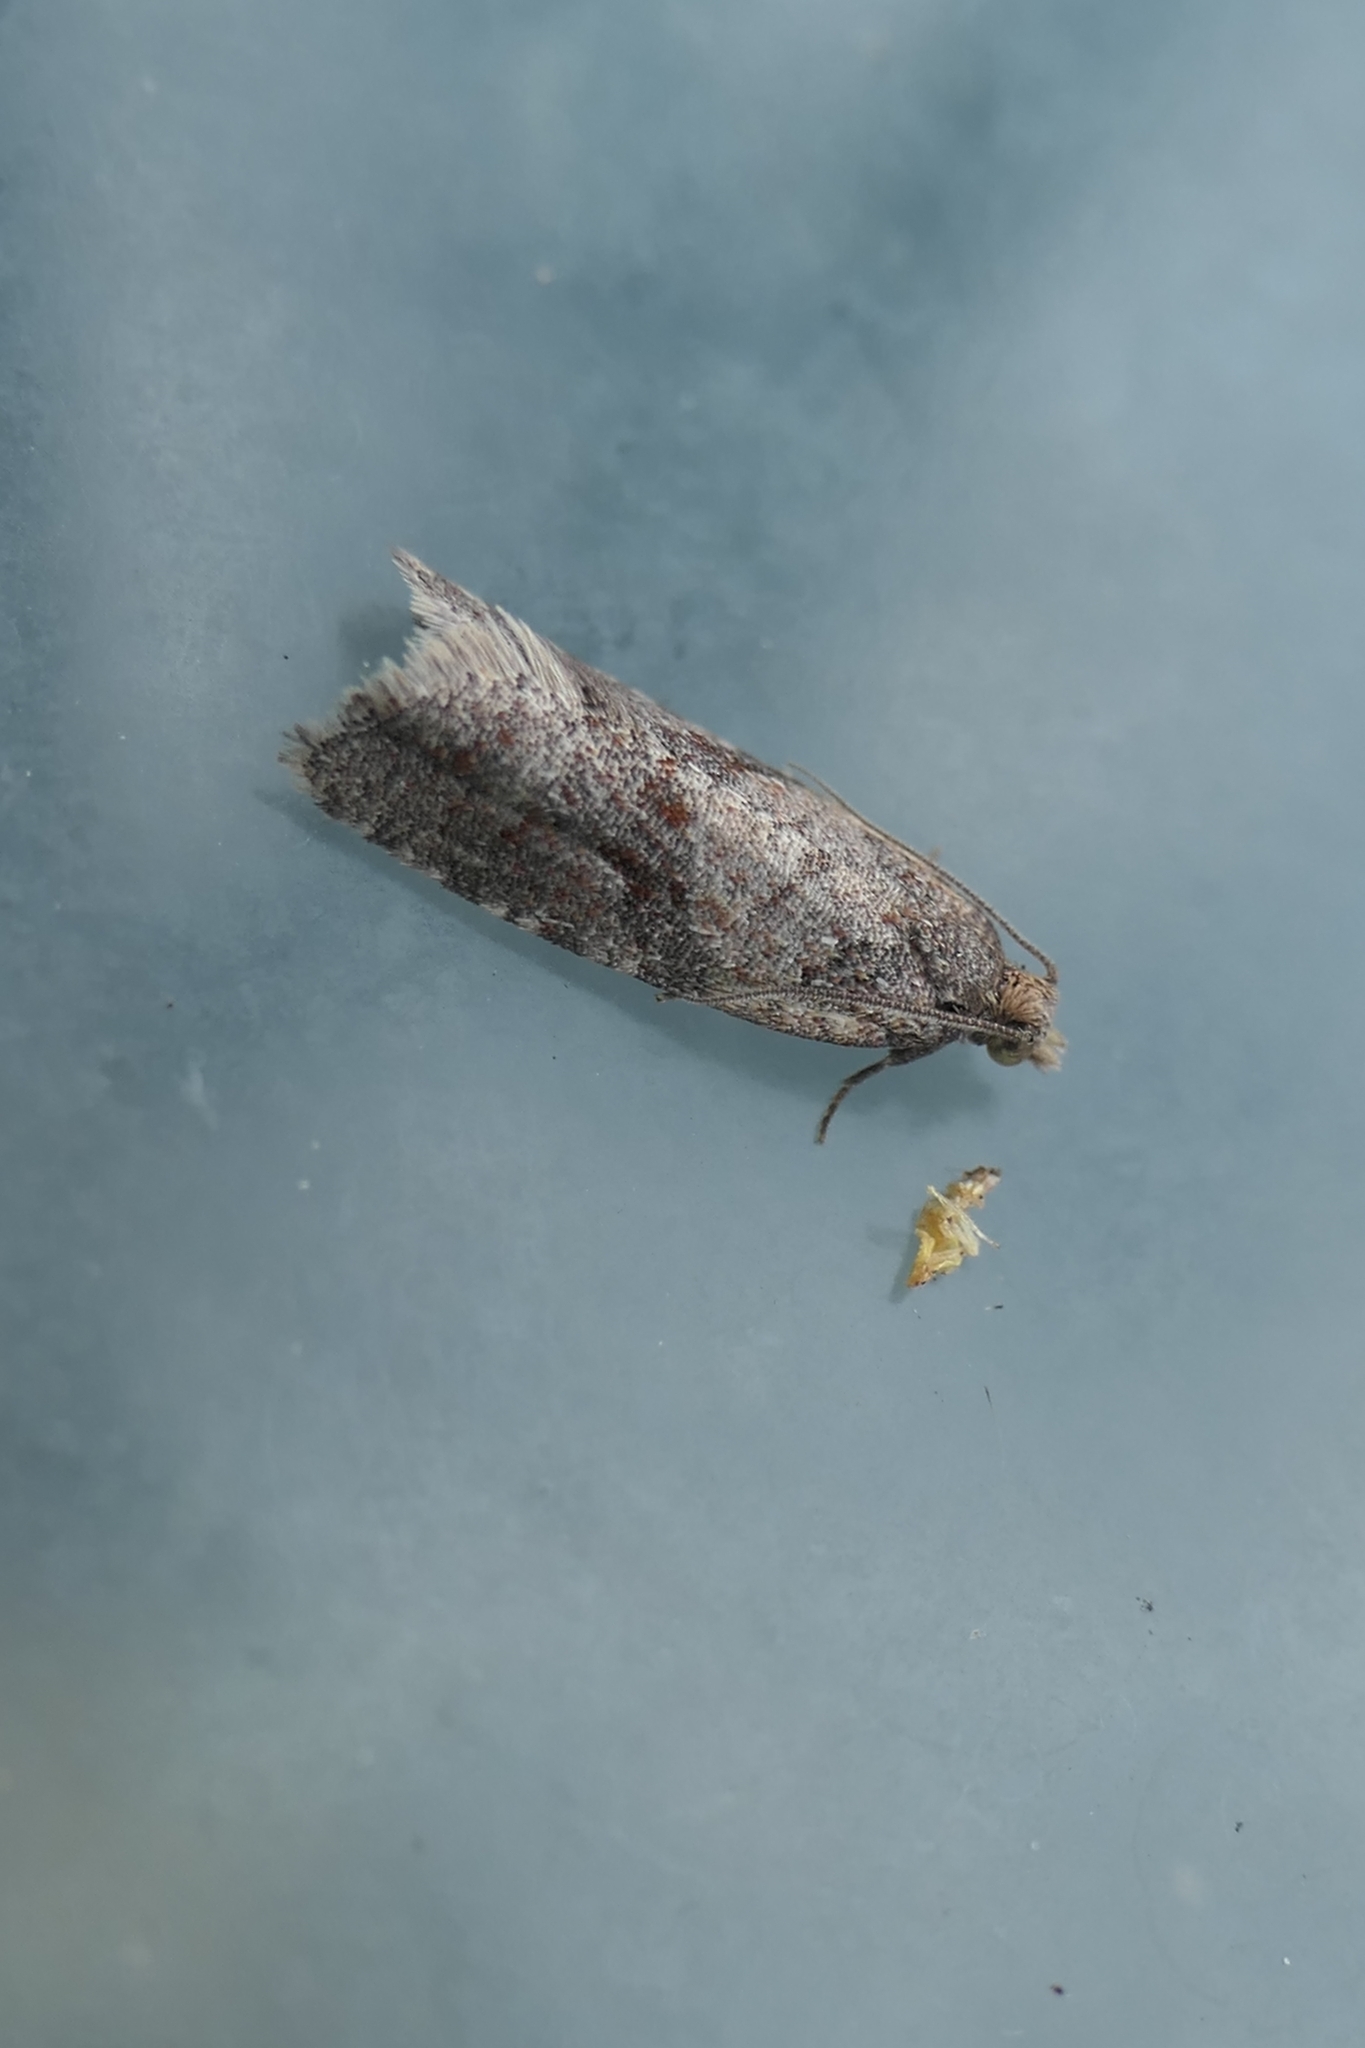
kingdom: Animalia
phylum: Arthropoda
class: Insecta
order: Lepidoptera
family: Tortricidae
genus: Capua
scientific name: Capua semiferana
